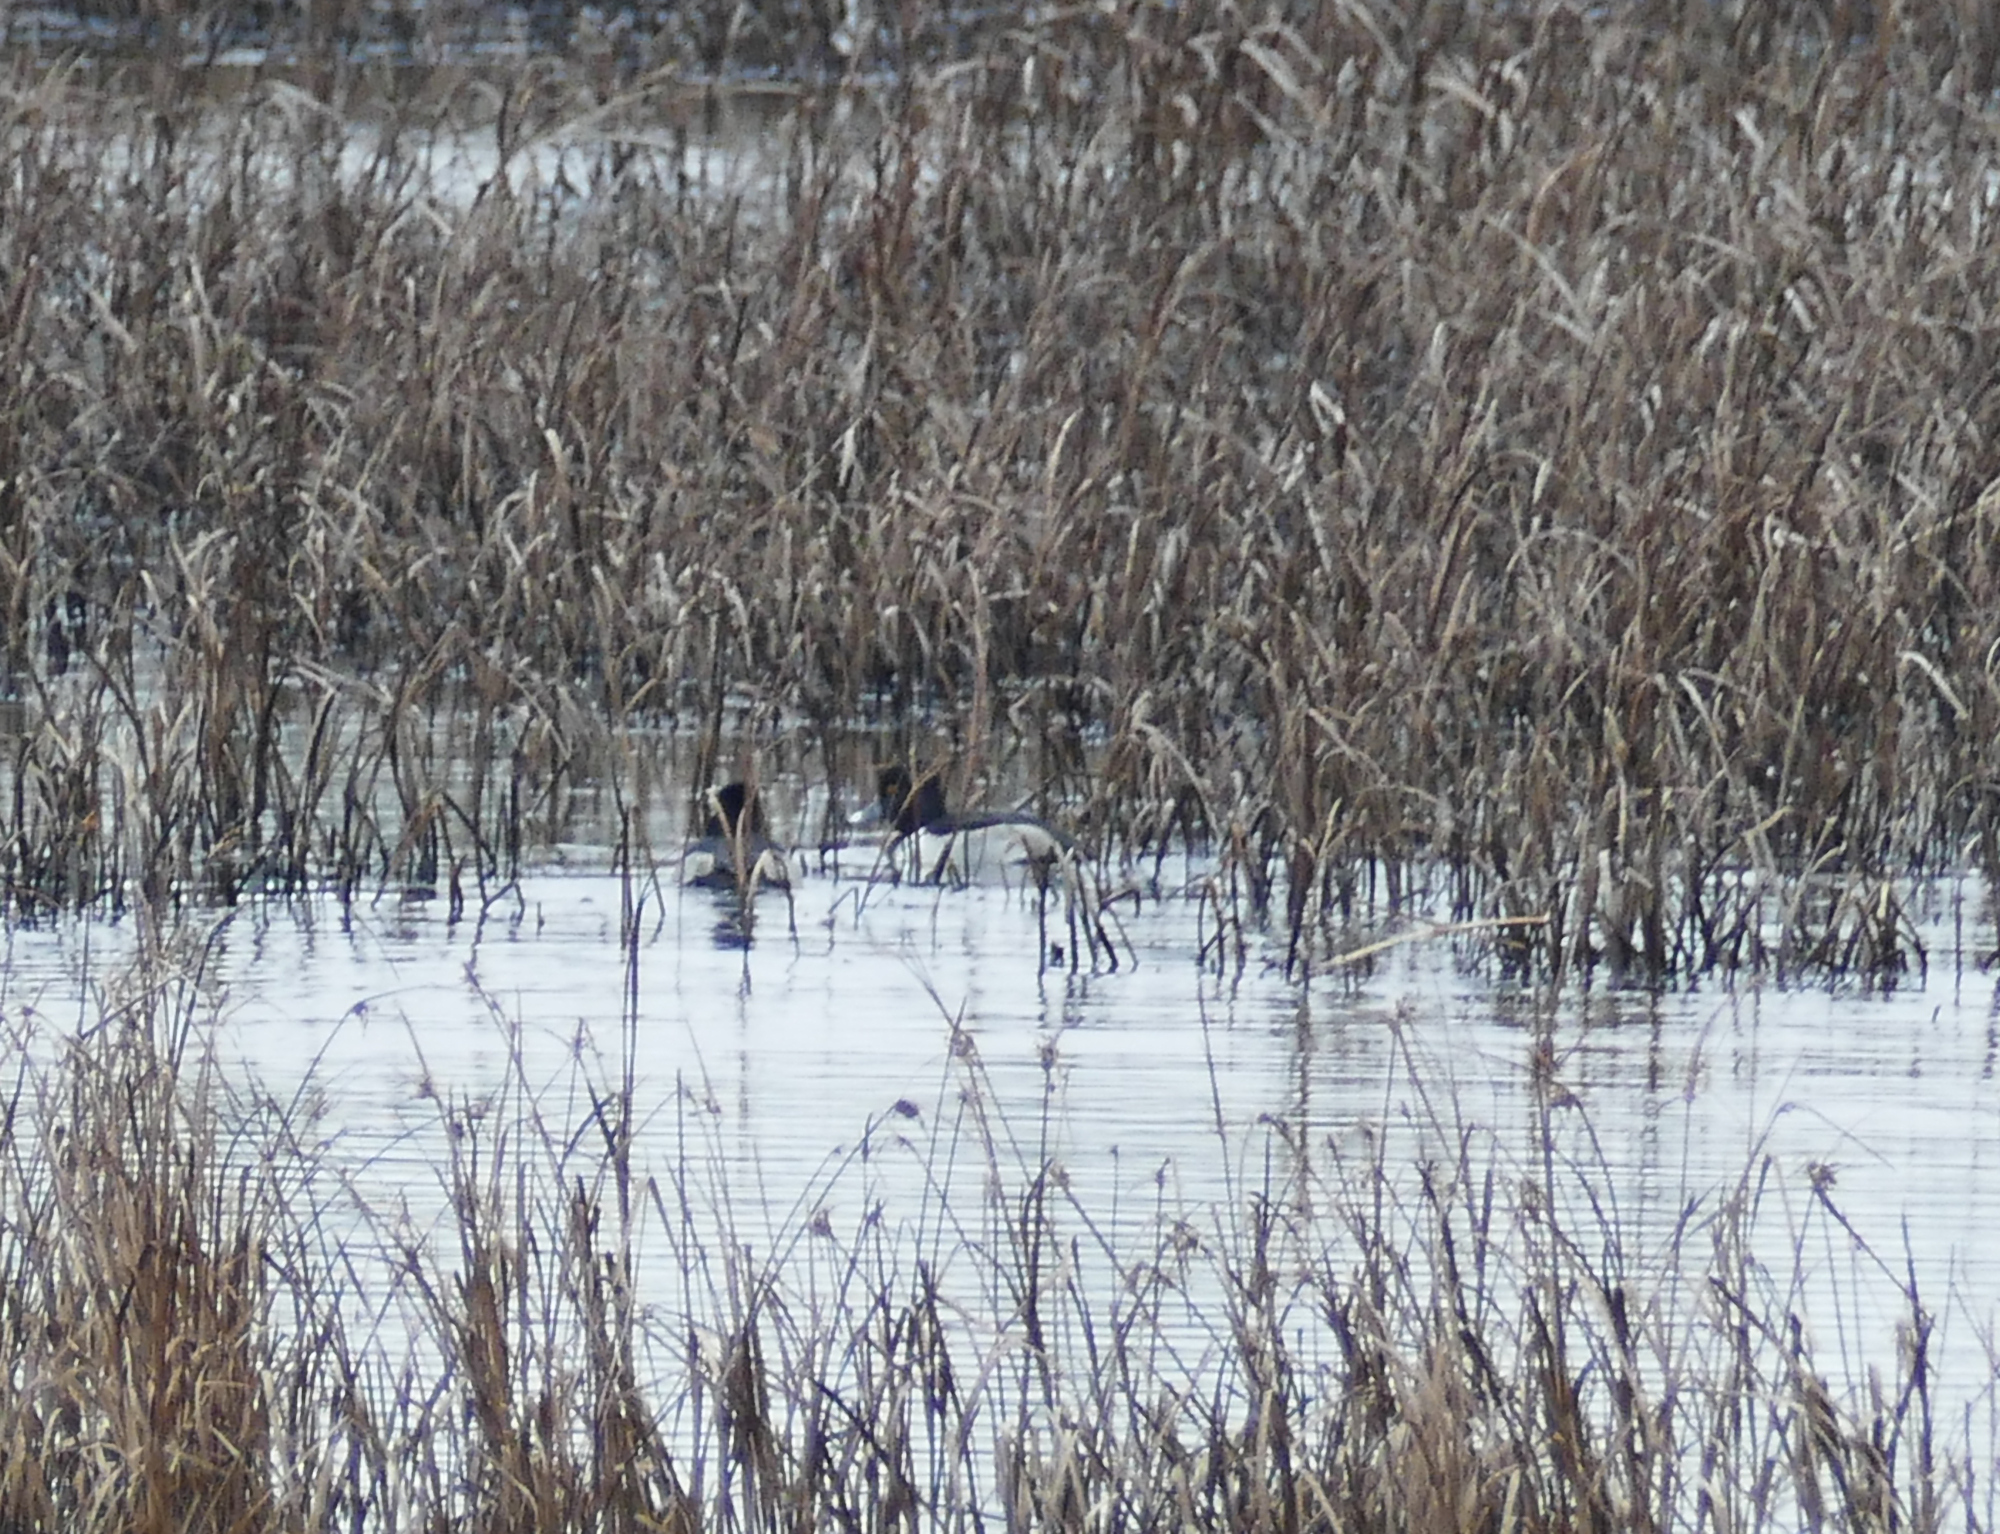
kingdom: Animalia
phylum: Chordata
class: Aves
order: Anseriformes
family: Anatidae
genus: Aythya
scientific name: Aythya collaris
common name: Ring-necked duck
